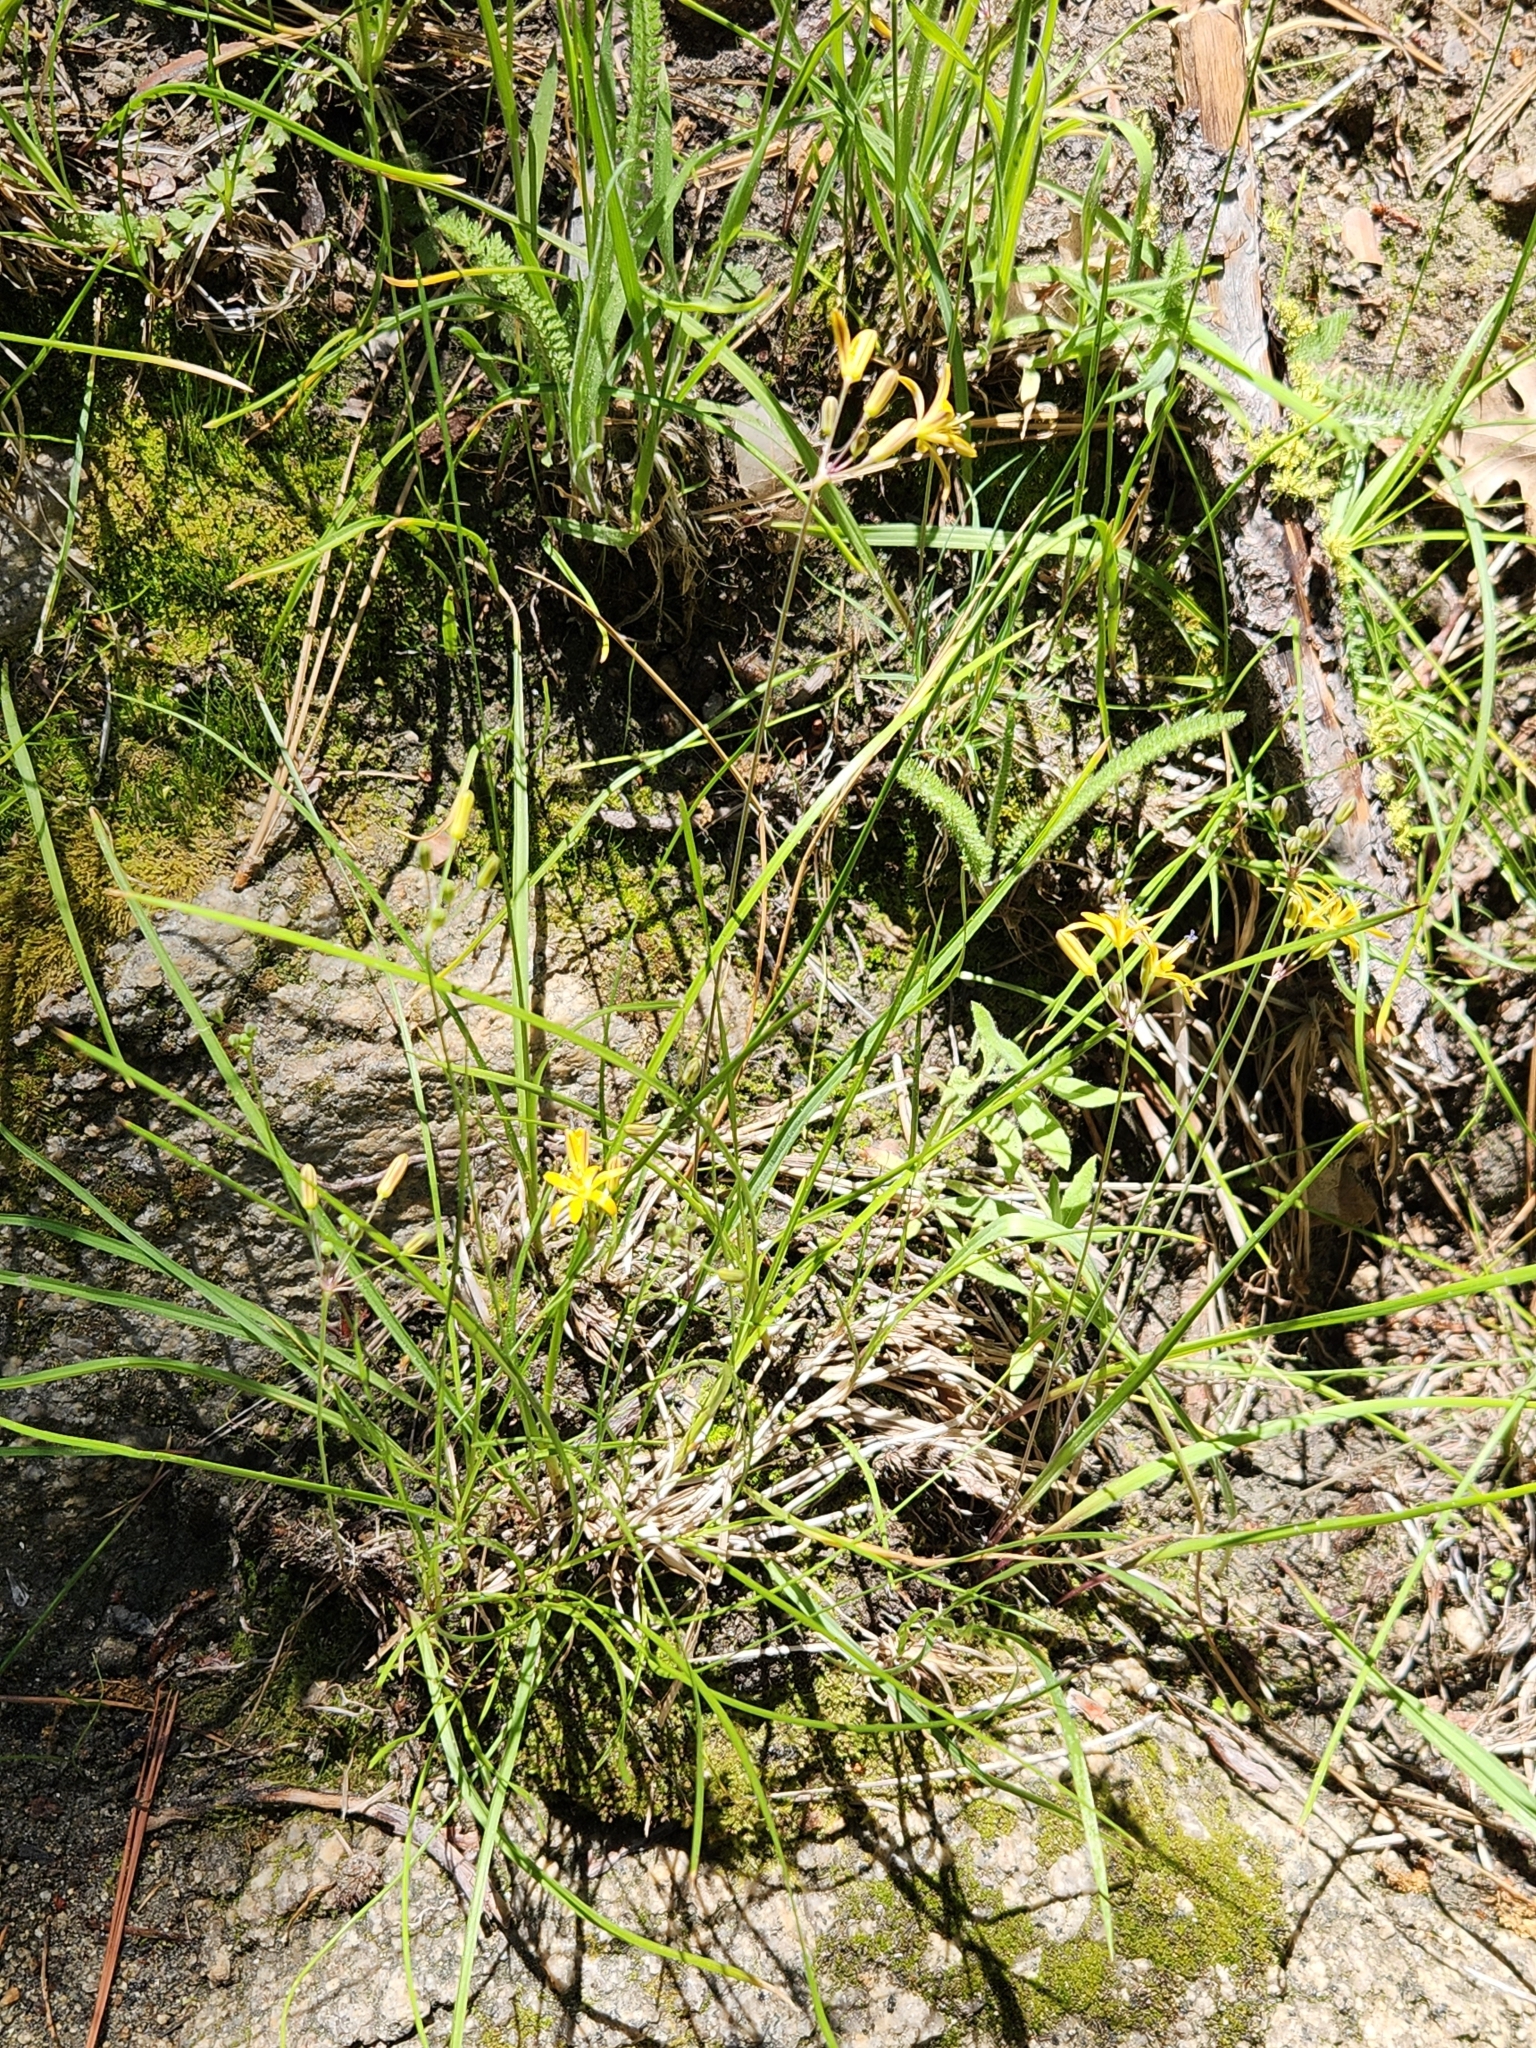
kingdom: Plantae
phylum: Tracheophyta
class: Liliopsida
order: Asparagales
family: Asparagaceae
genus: Bloomeria
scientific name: Bloomeria crocea
